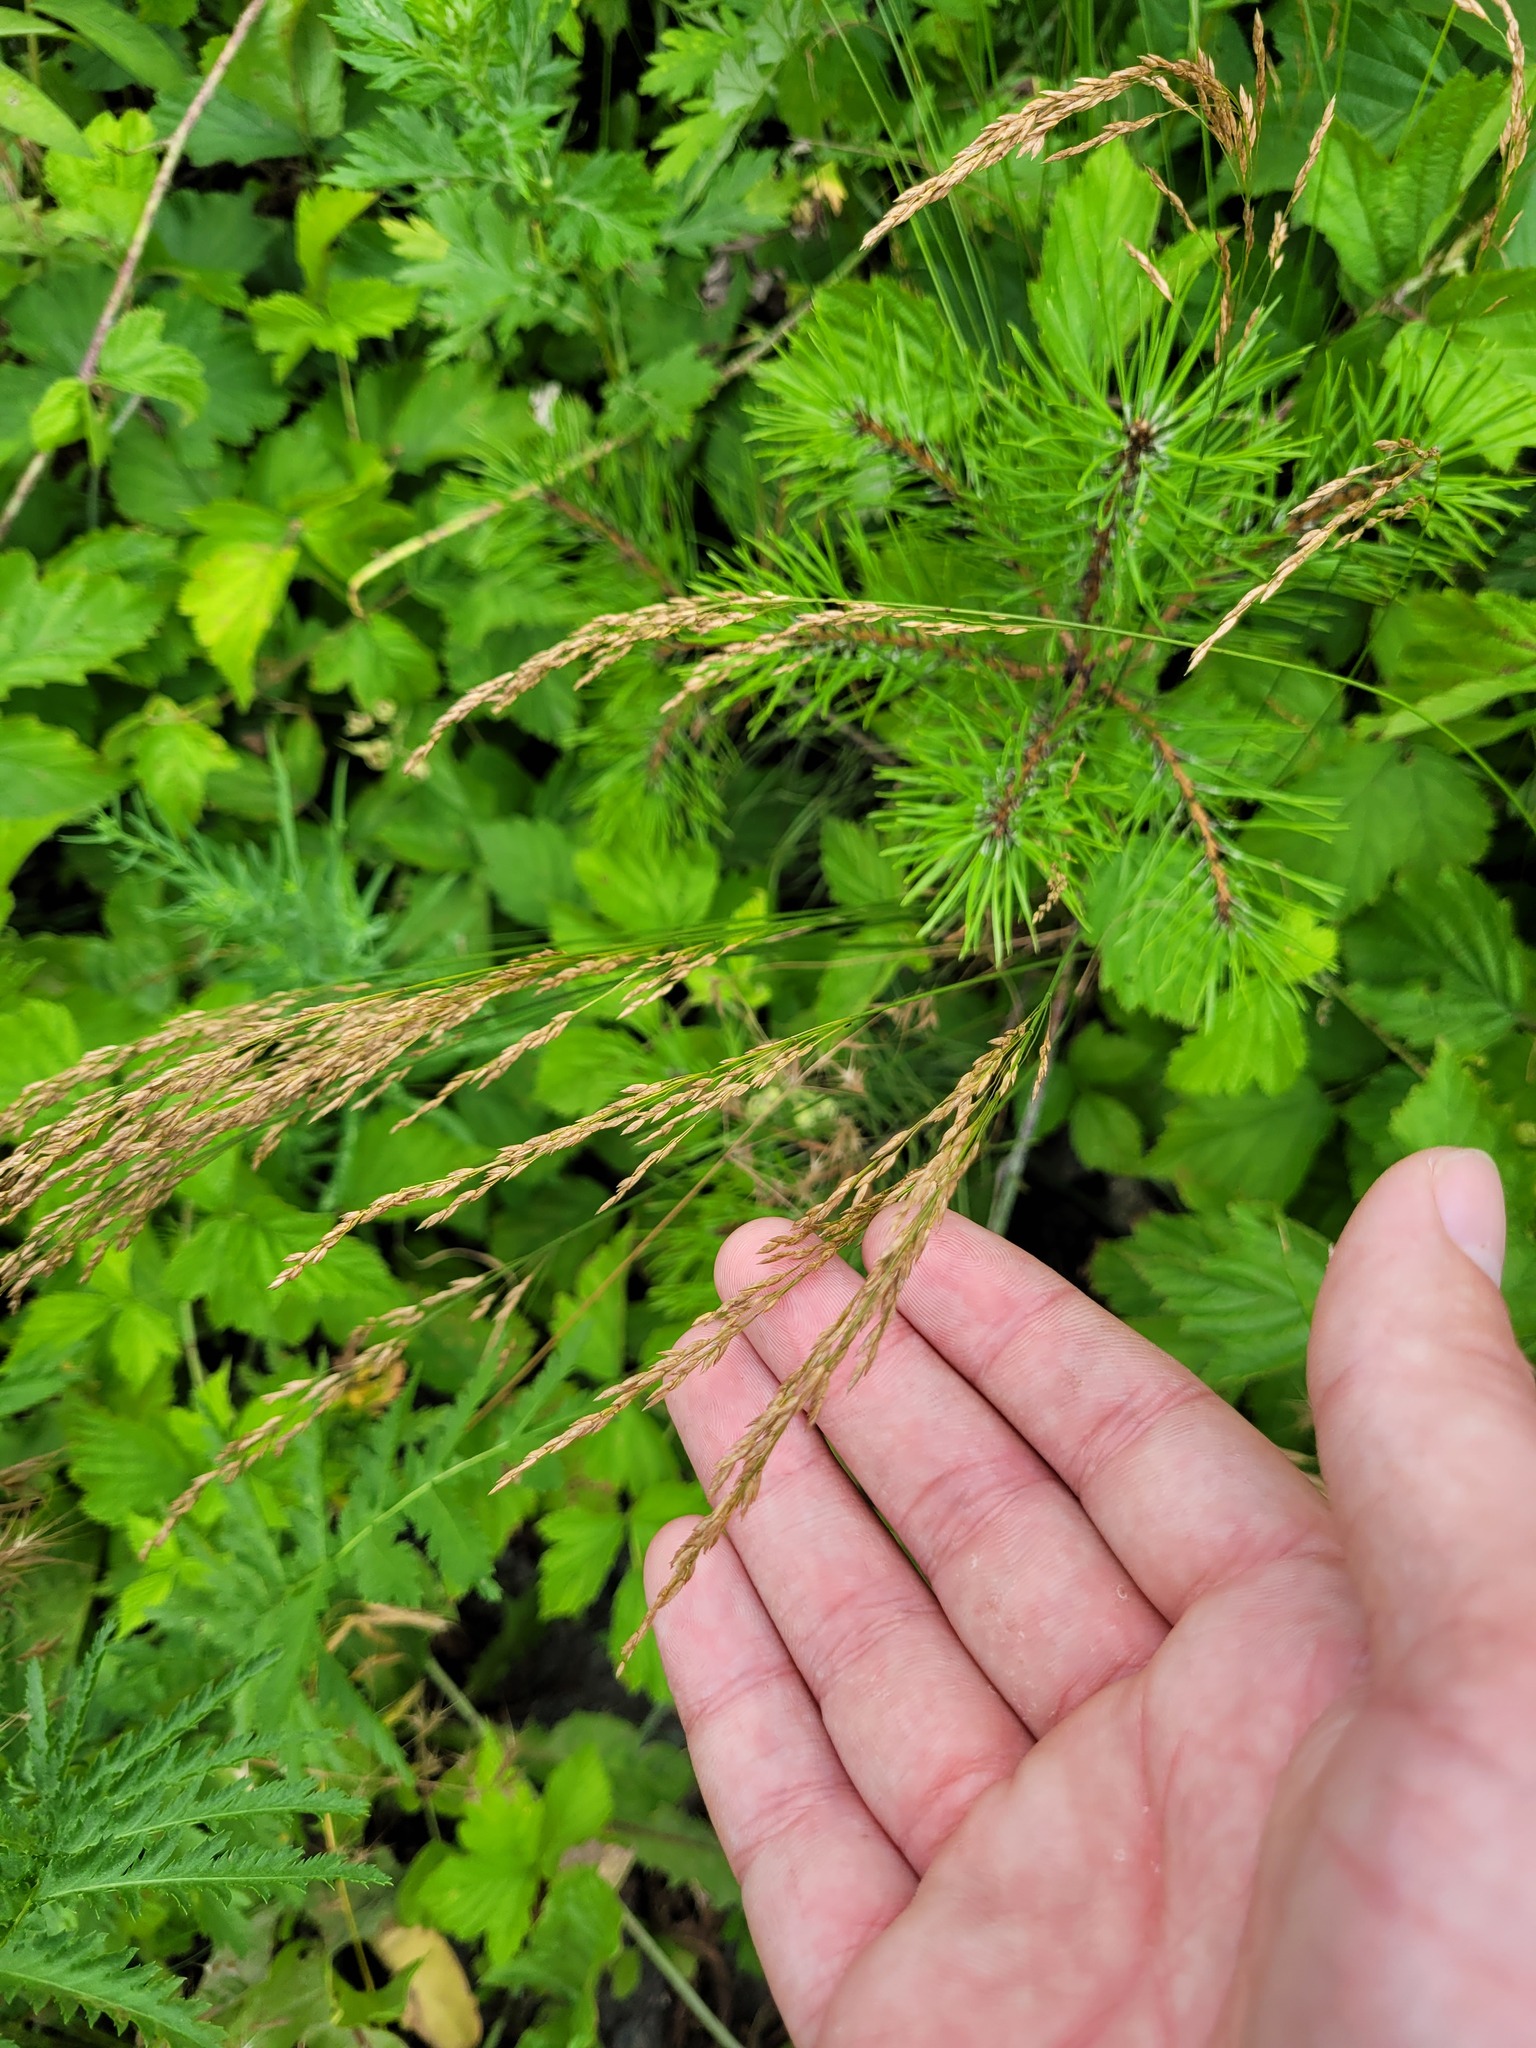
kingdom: Plantae
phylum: Tracheophyta
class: Liliopsida
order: Poales
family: Poaceae
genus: Poa
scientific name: Poa palustris
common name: Swamp meadow-grass
